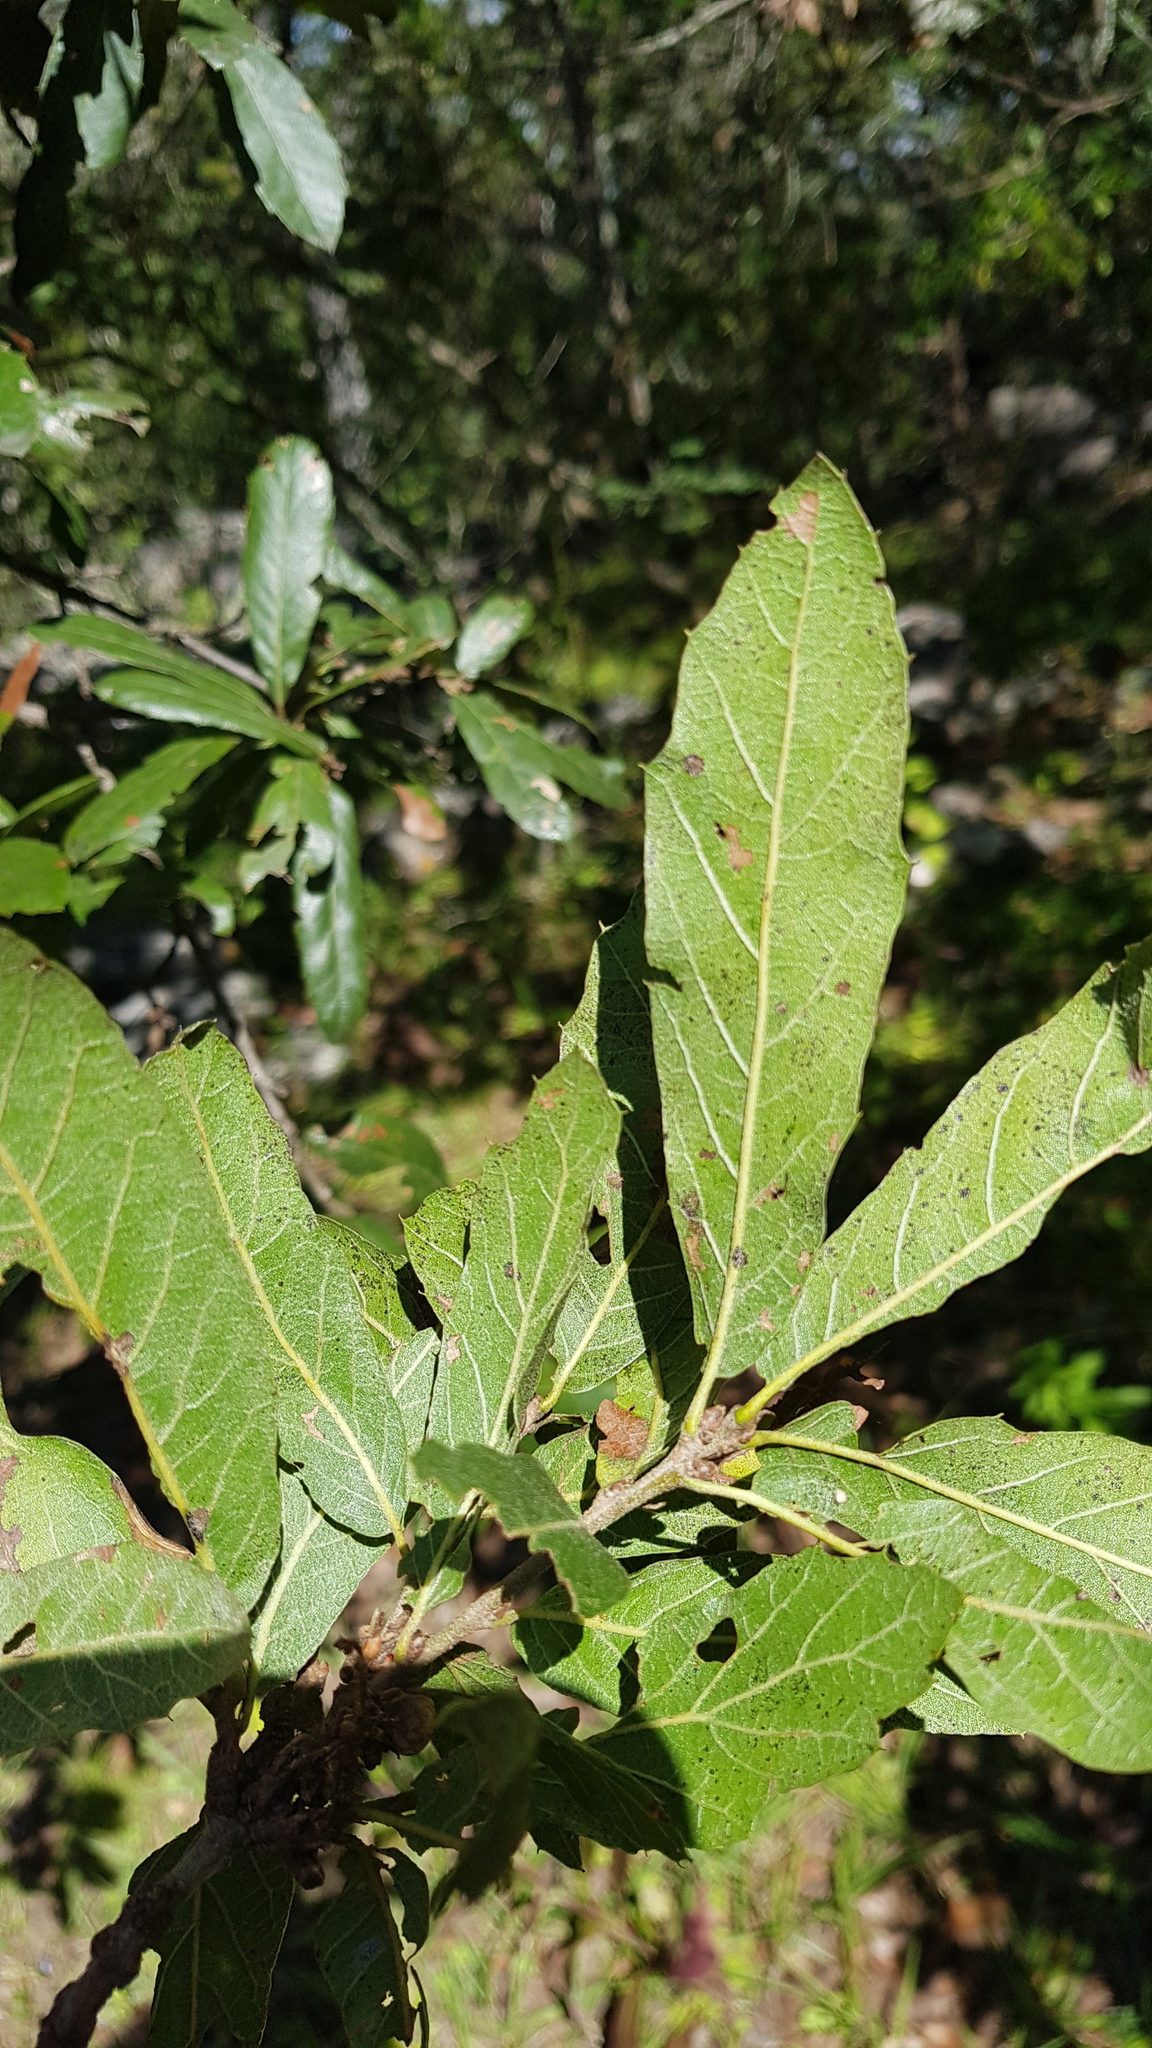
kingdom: Plantae
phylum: Tracheophyta
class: Magnoliopsida
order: Fagales
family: Fagaceae
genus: Quercus
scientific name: Quercus castanea
